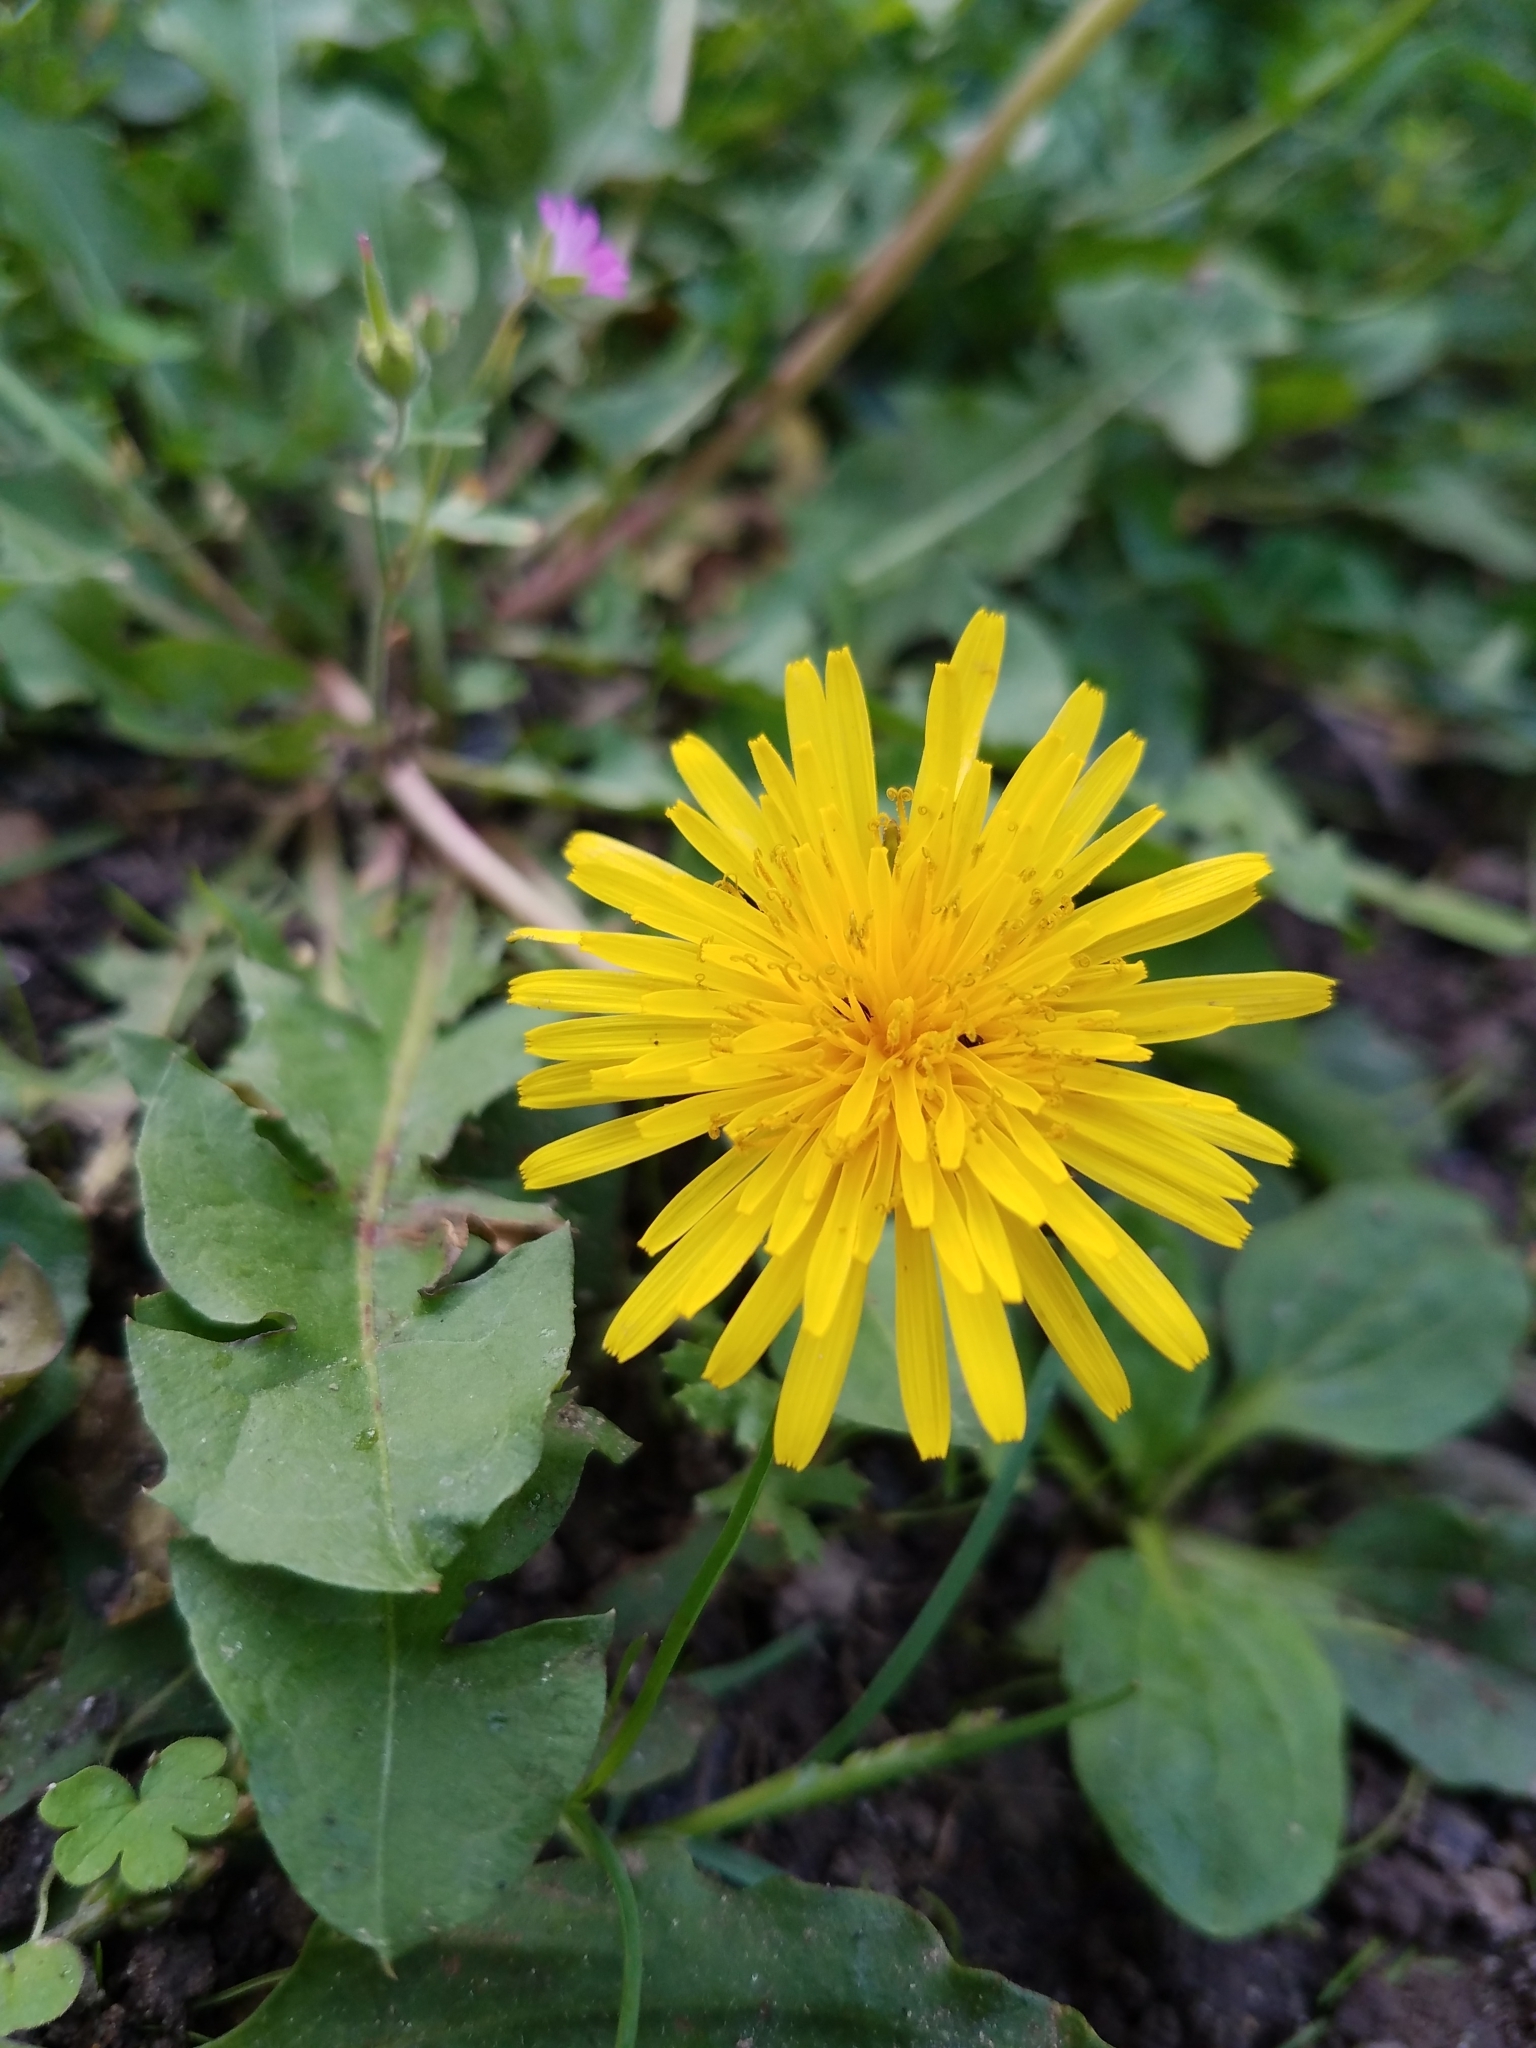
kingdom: Plantae
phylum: Tracheophyta
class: Magnoliopsida
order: Asterales
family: Asteraceae
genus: Taraxacum
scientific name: Taraxacum officinale
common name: Common dandelion
